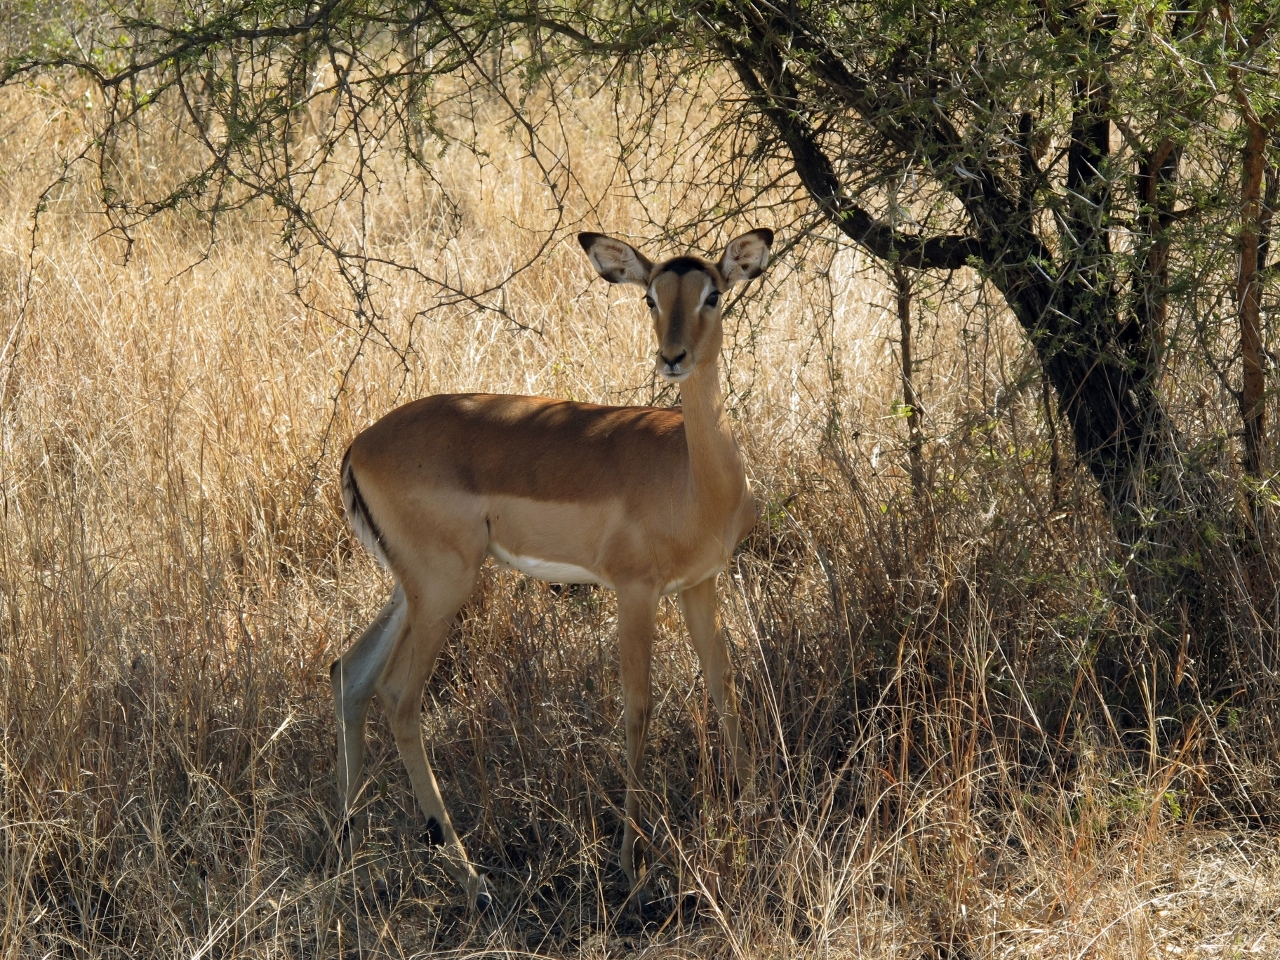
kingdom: Animalia
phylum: Chordata
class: Mammalia
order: Artiodactyla
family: Bovidae
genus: Aepyceros
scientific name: Aepyceros melampus
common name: Impala
